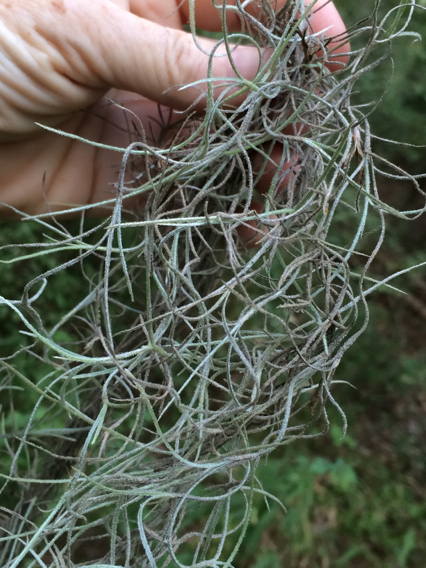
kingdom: Plantae
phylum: Tracheophyta
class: Liliopsida
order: Poales
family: Bromeliaceae
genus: Tillandsia
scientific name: Tillandsia usneoides
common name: Spanish moss
